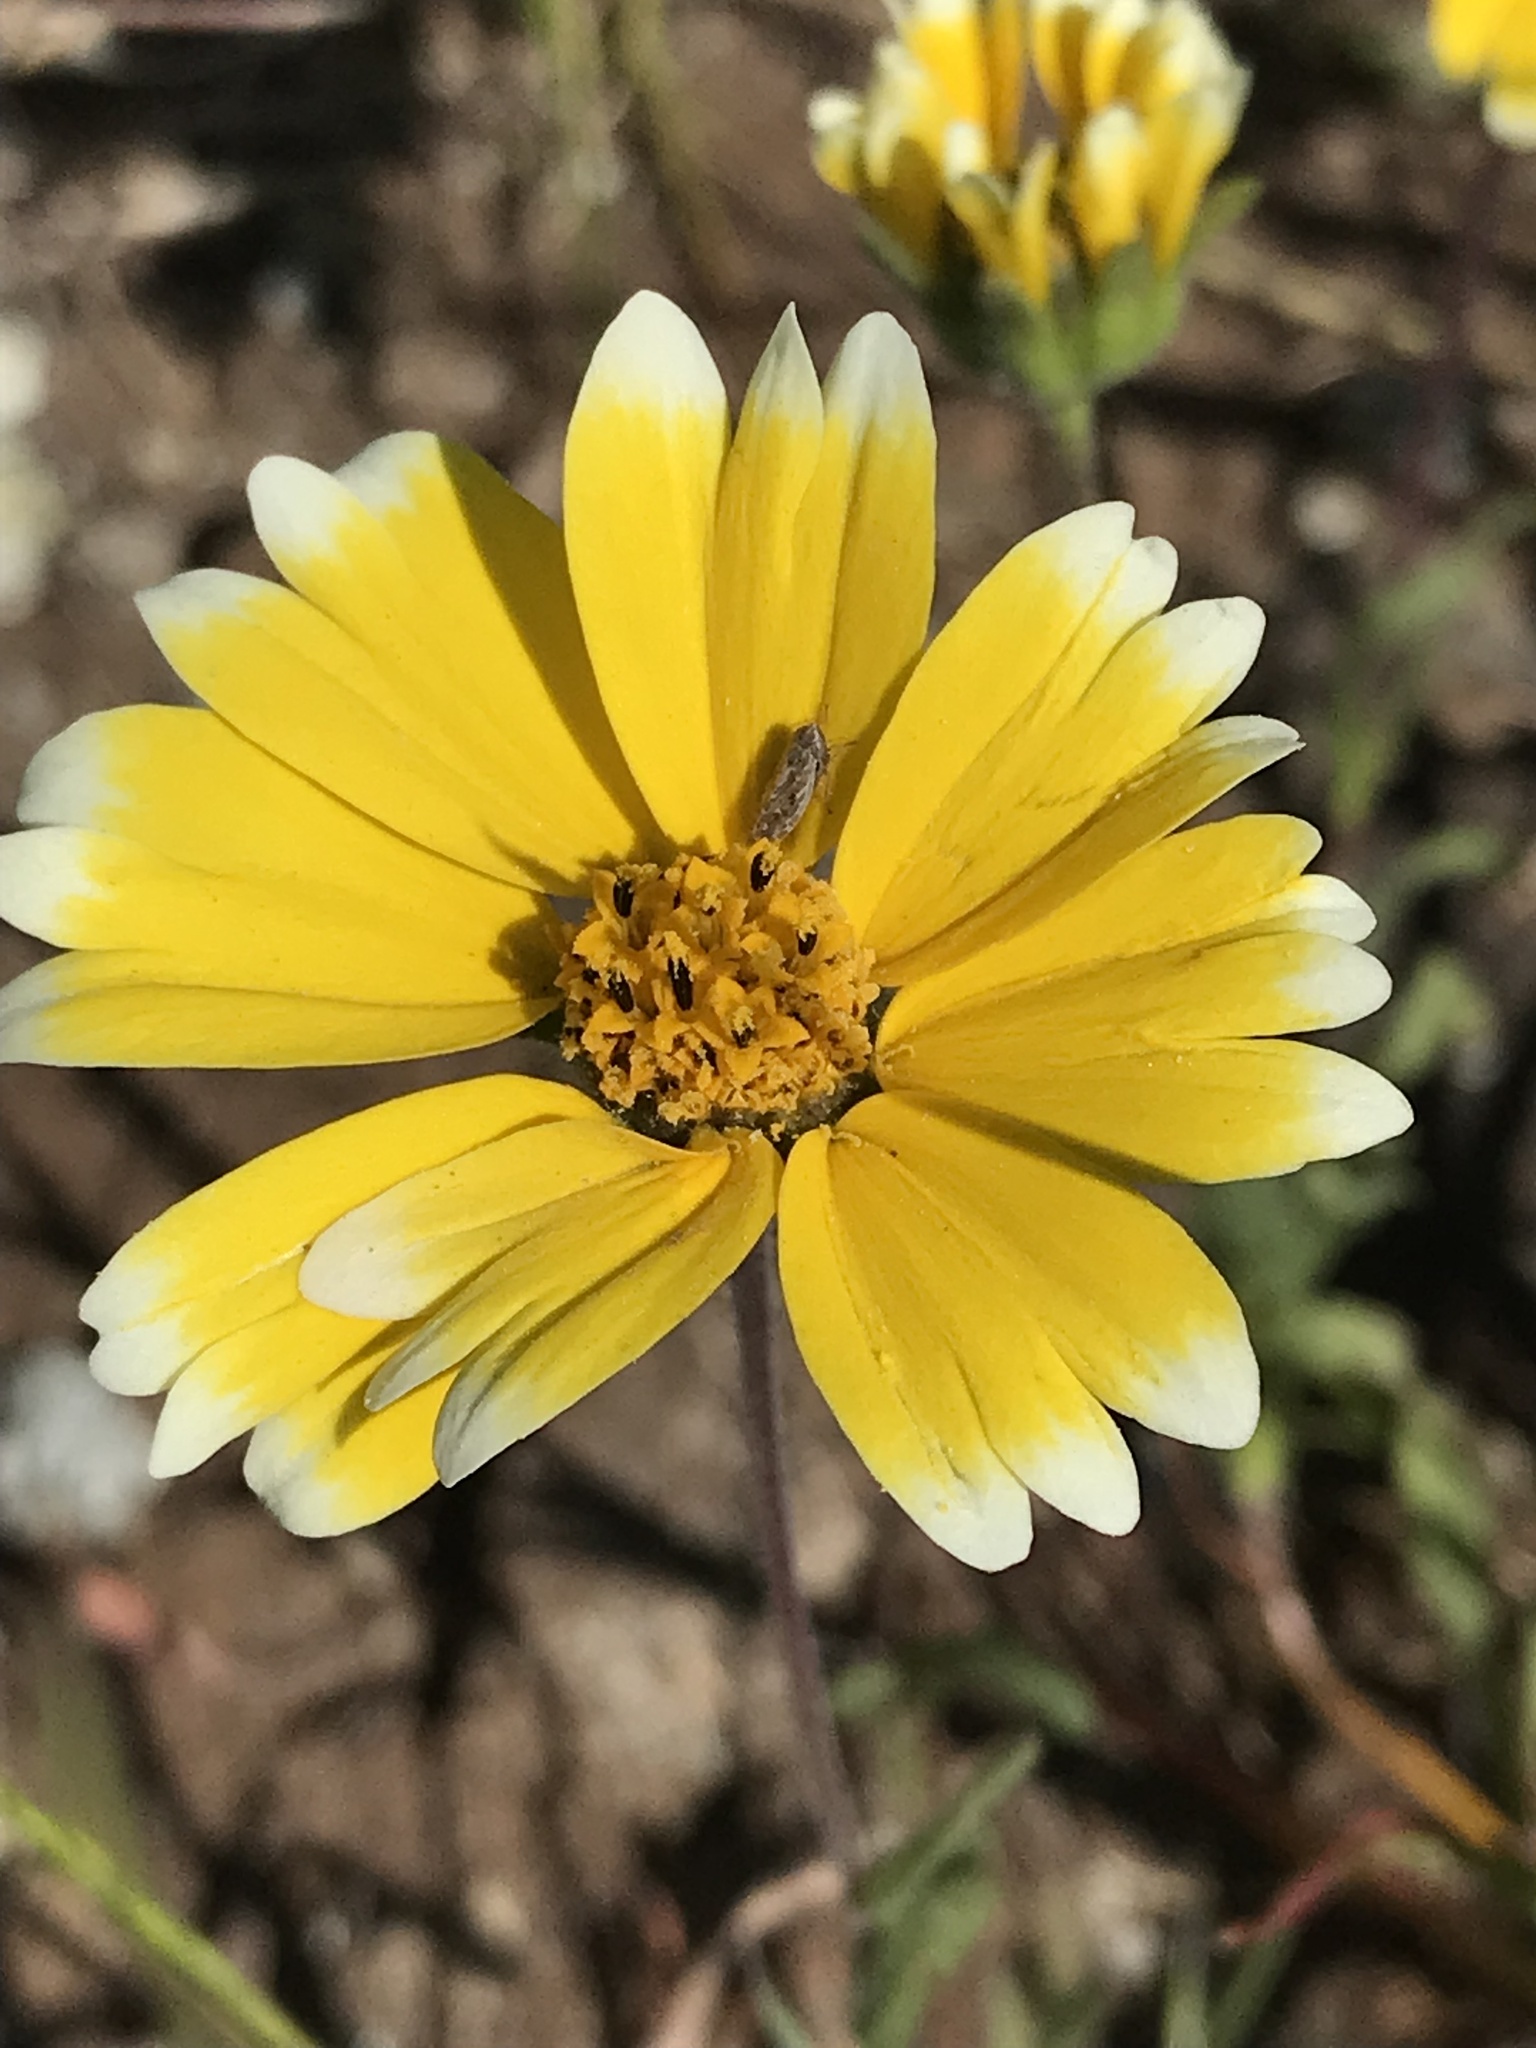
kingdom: Plantae
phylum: Tracheophyta
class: Magnoliopsida
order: Asterales
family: Asteraceae
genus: Layia
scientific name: Layia platyglossa
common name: Tidy-tips
